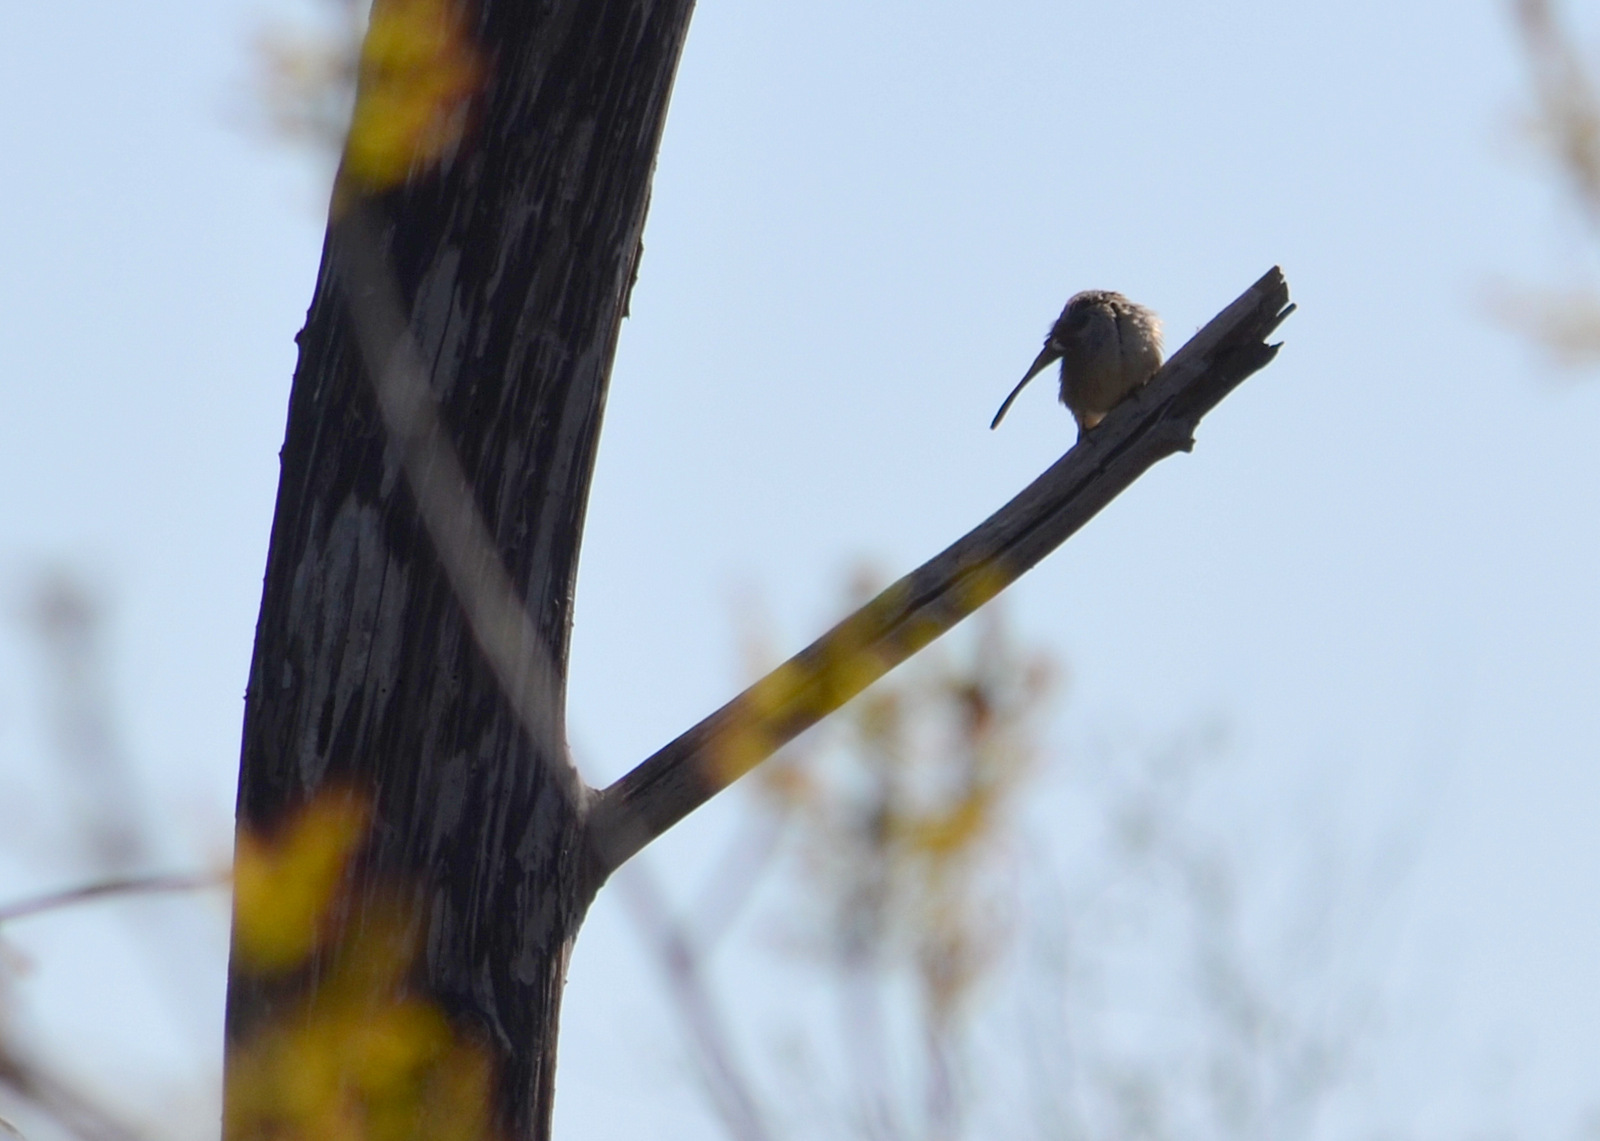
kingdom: Animalia
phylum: Chordata
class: Aves
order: Passeriformes
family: Passeridae
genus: Passer
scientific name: Passer domesticus
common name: House sparrow
